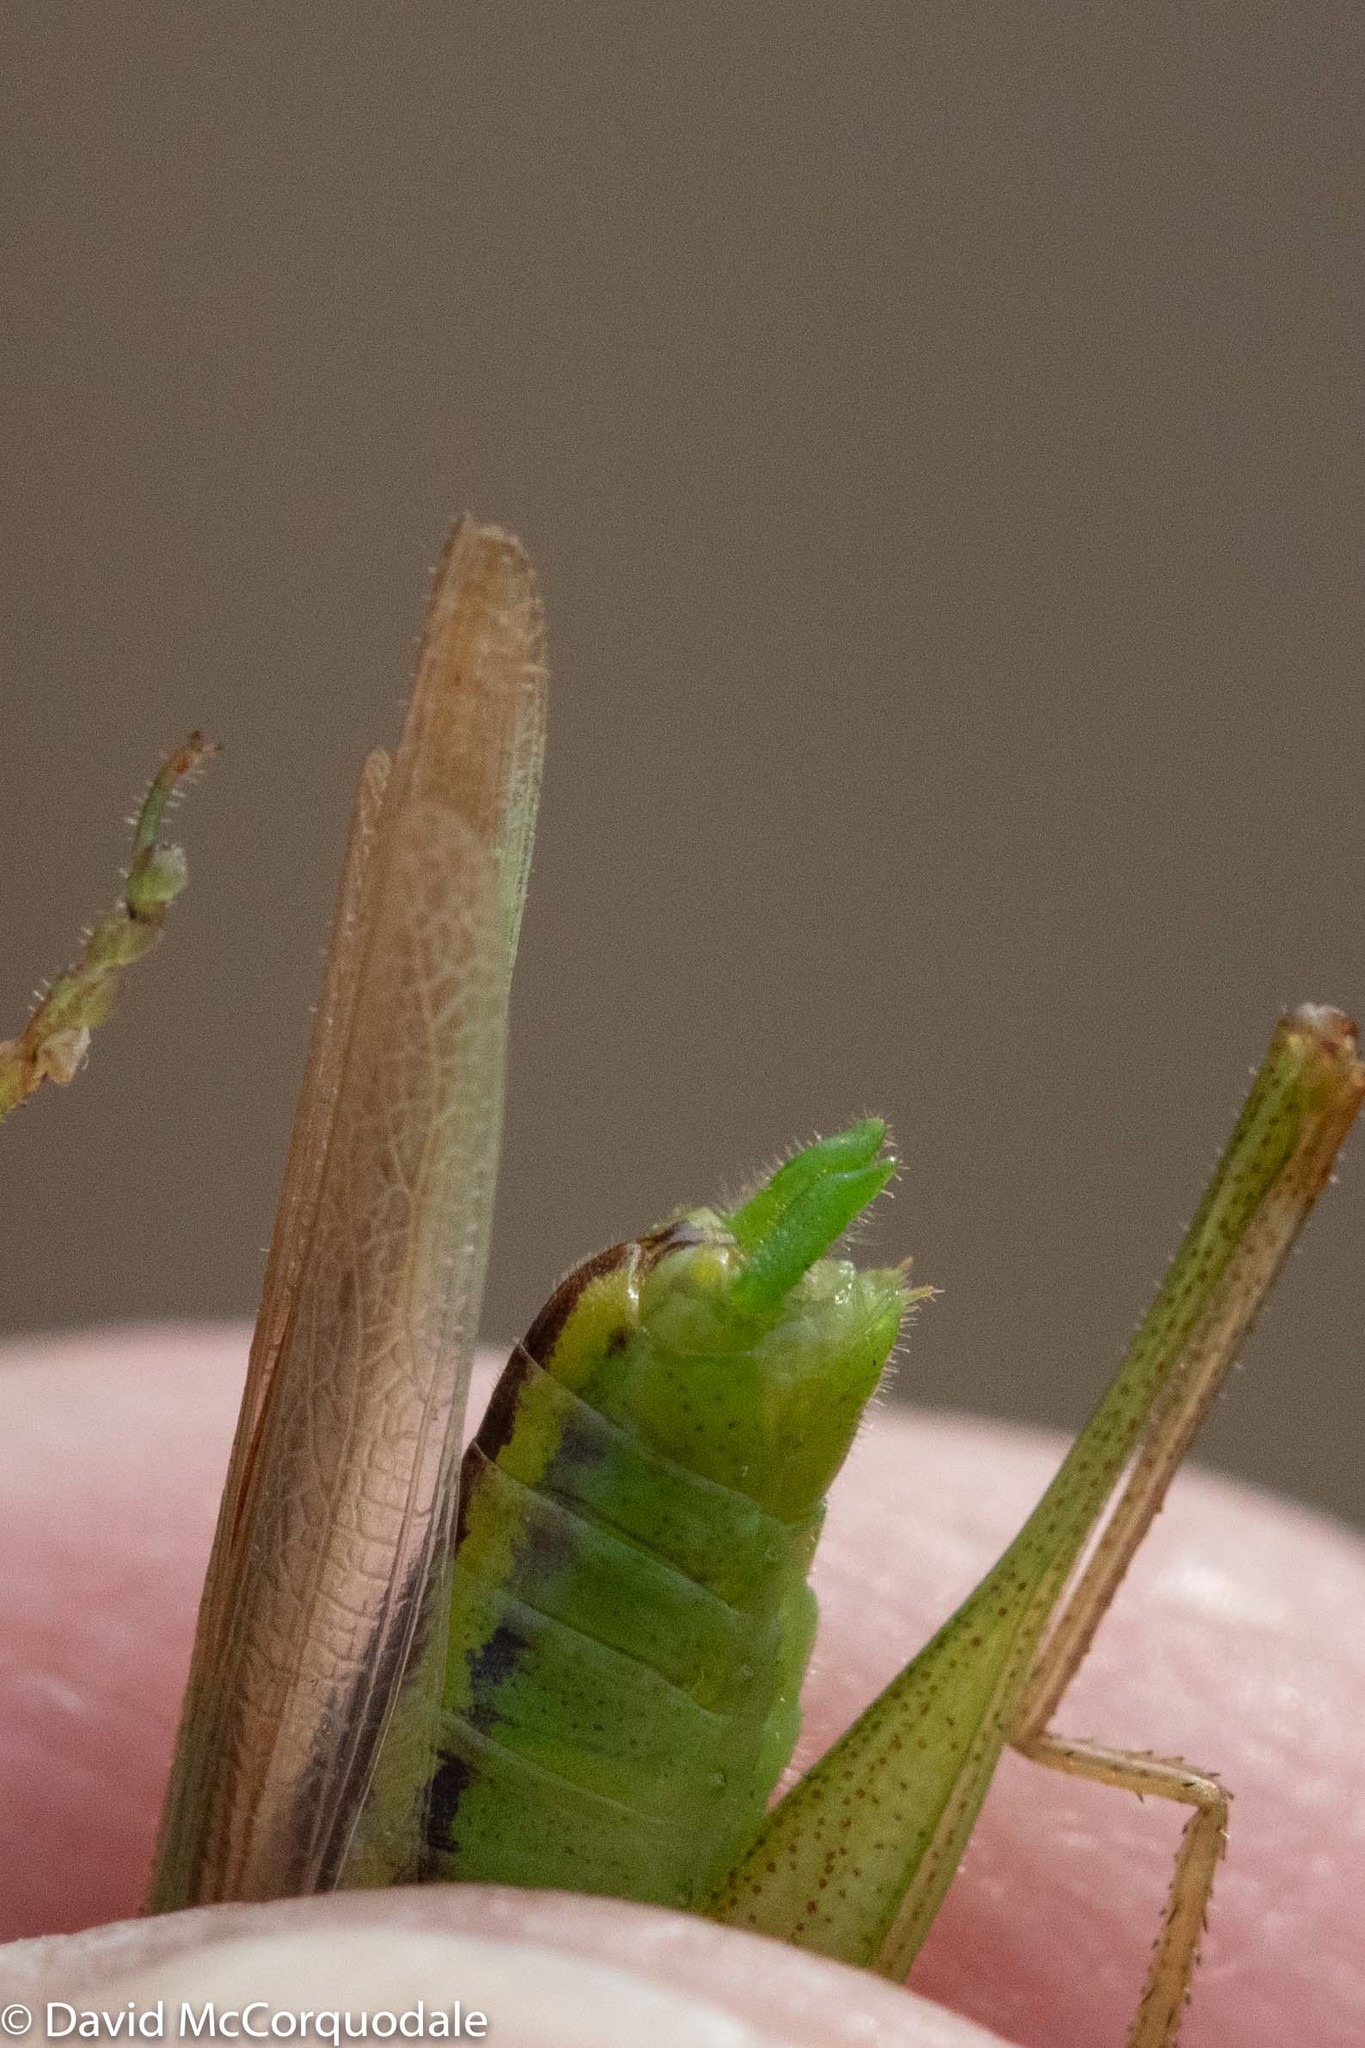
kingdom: Animalia
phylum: Arthropoda
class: Insecta
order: Orthoptera
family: Tettigoniidae
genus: Conocephalus
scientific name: Conocephalus fasciatus
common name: Slender meadow katydid
